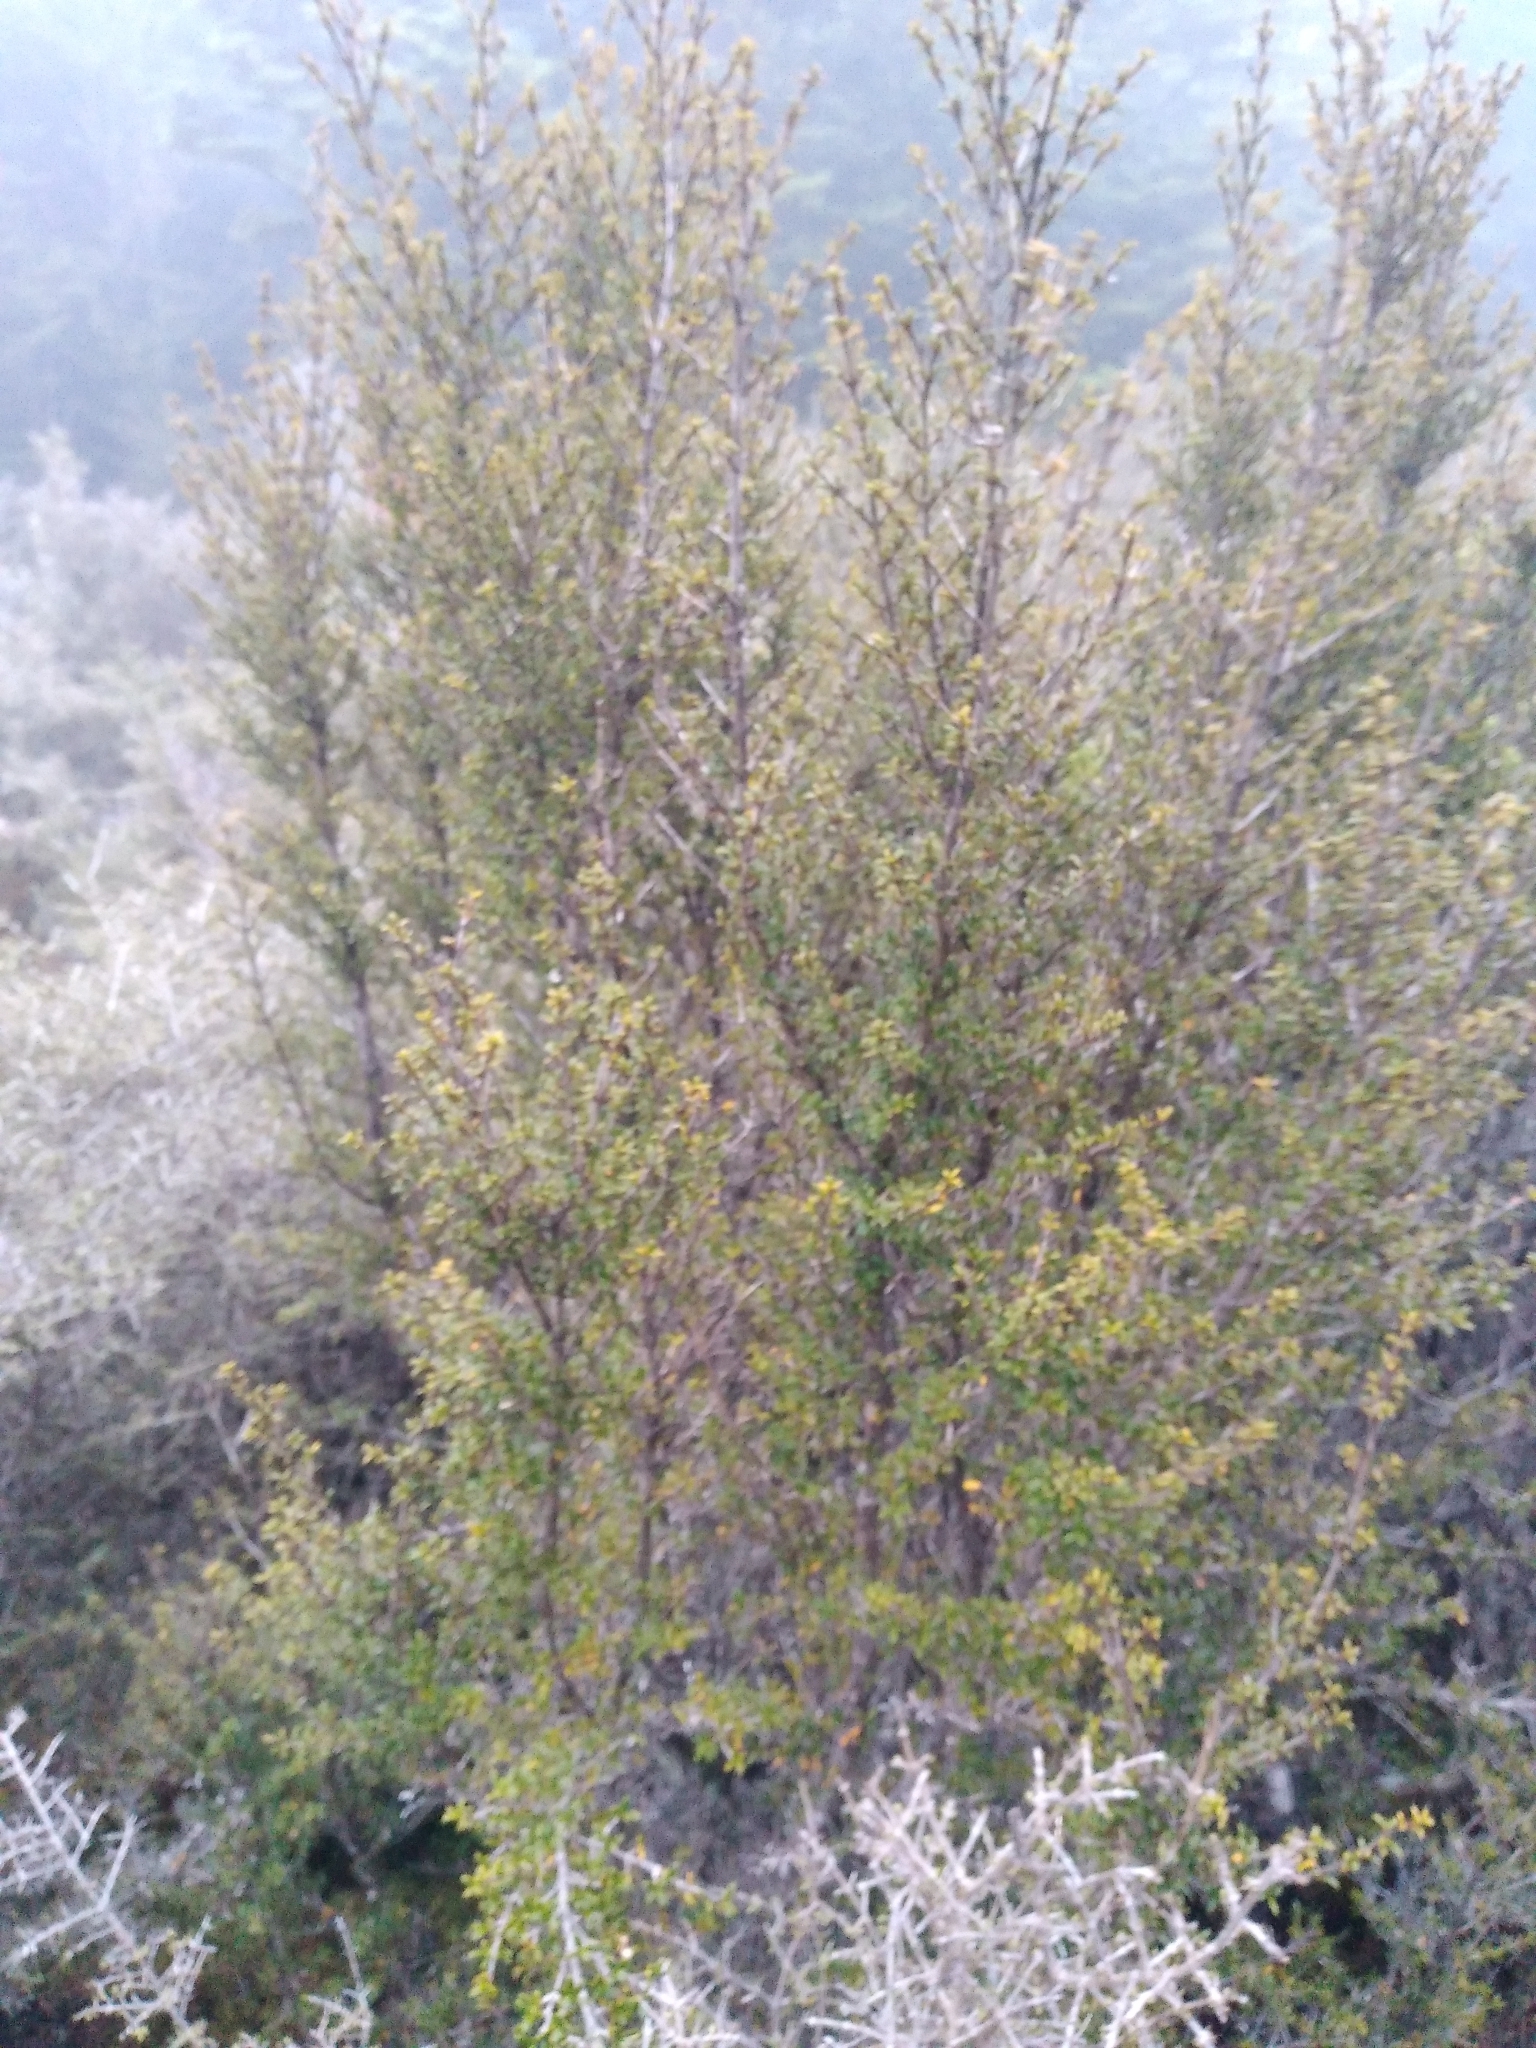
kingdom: Plantae
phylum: Tracheophyta
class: Magnoliopsida
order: Gentianales
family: Rubiaceae
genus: Coprosma
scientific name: Coprosma pseudocuneata
